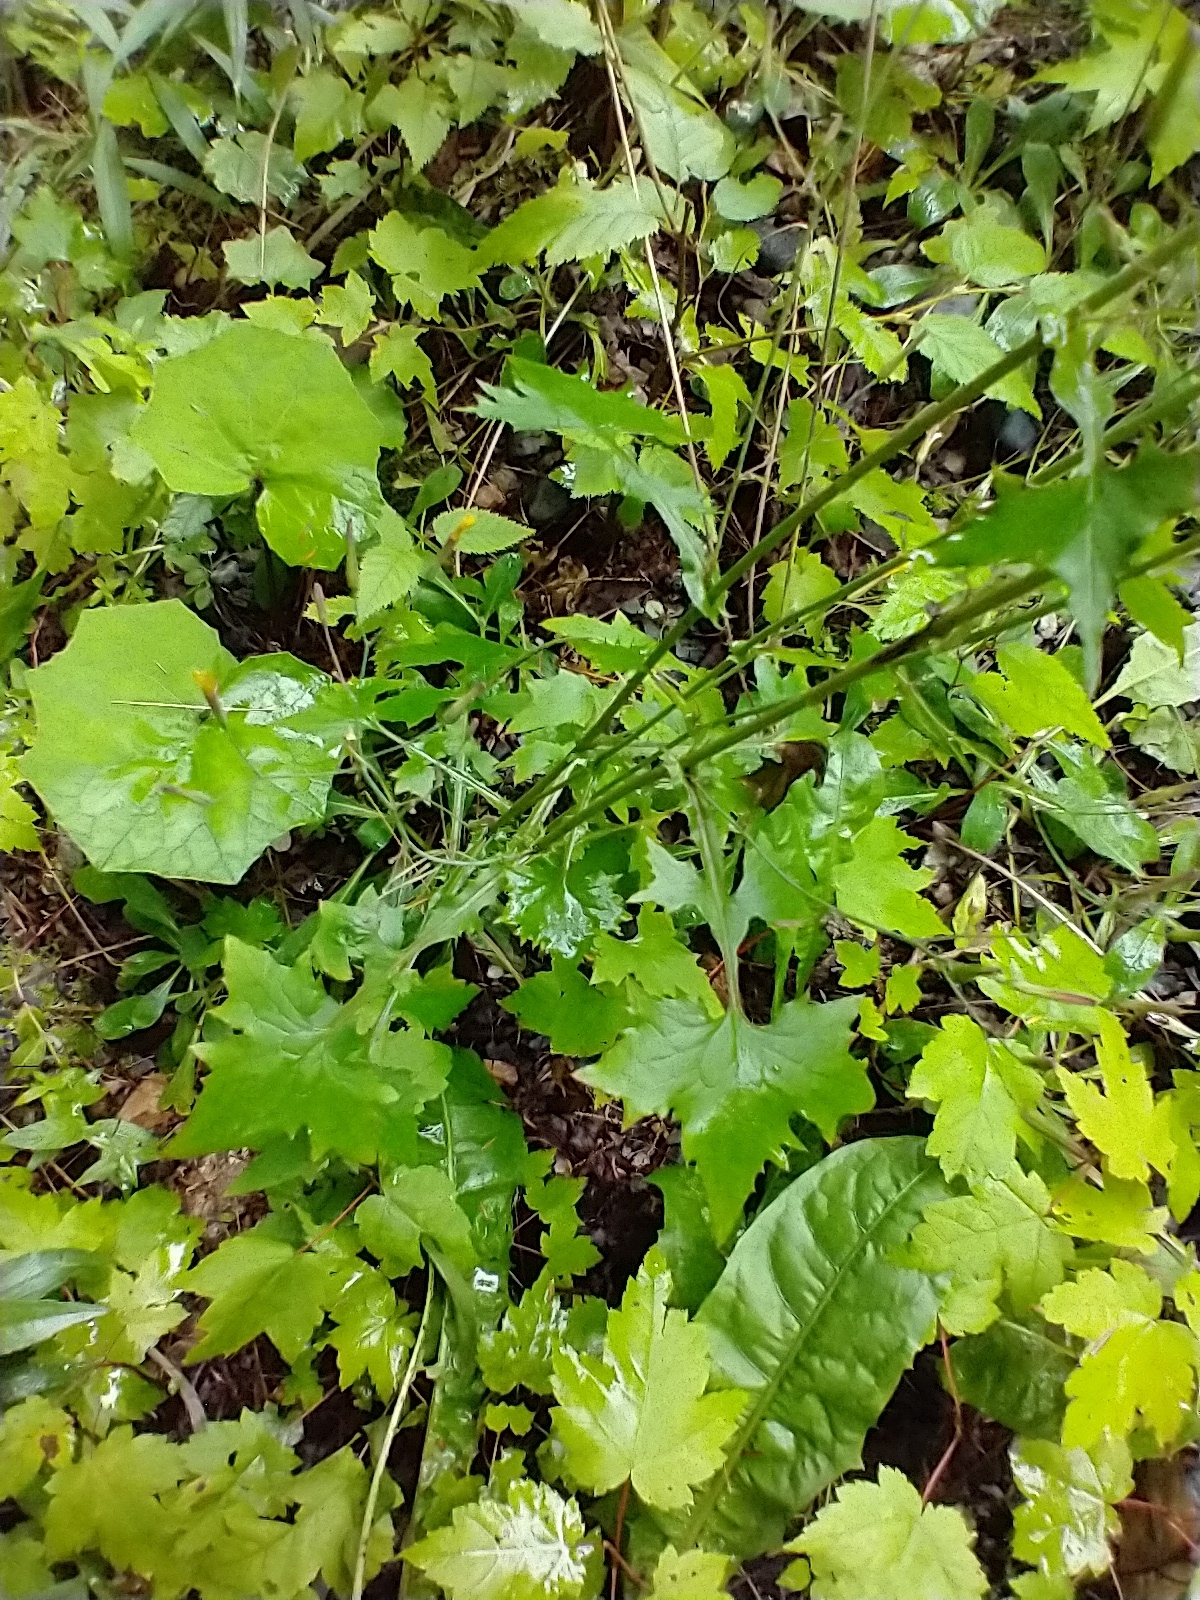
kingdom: Plantae
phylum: Tracheophyta
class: Magnoliopsida
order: Asterales
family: Asteraceae
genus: Mycelis
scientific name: Mycelis muralis
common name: Wall lettuce
